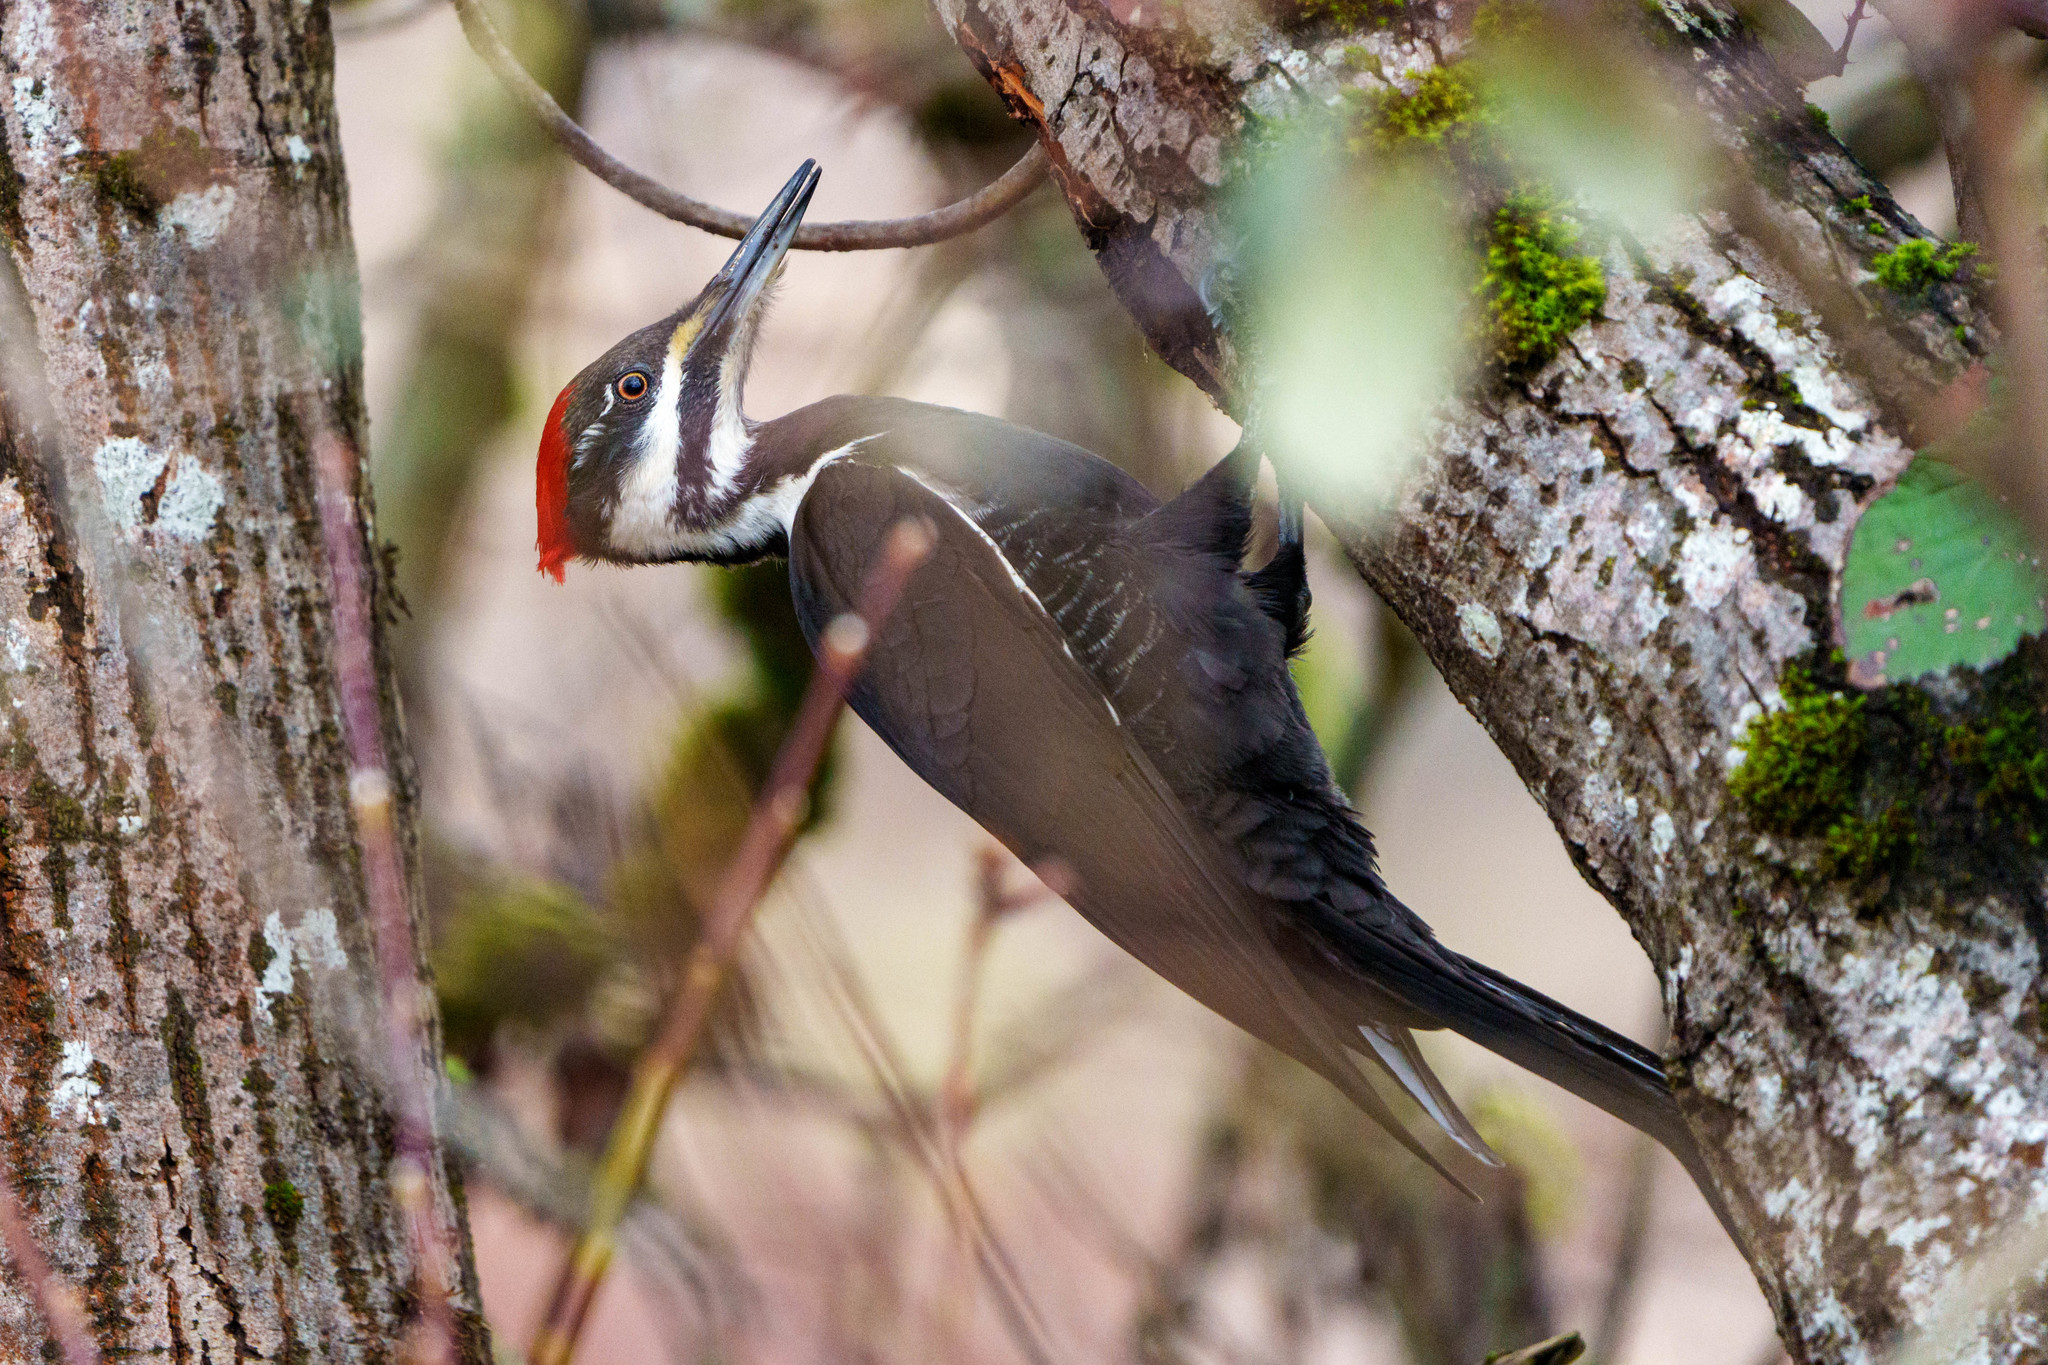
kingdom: Animalia
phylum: Chordata
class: Aves
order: Piciformes
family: Picidae
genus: Dryocopus
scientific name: Dryocopus pileatus
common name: Pileated woodpecker
